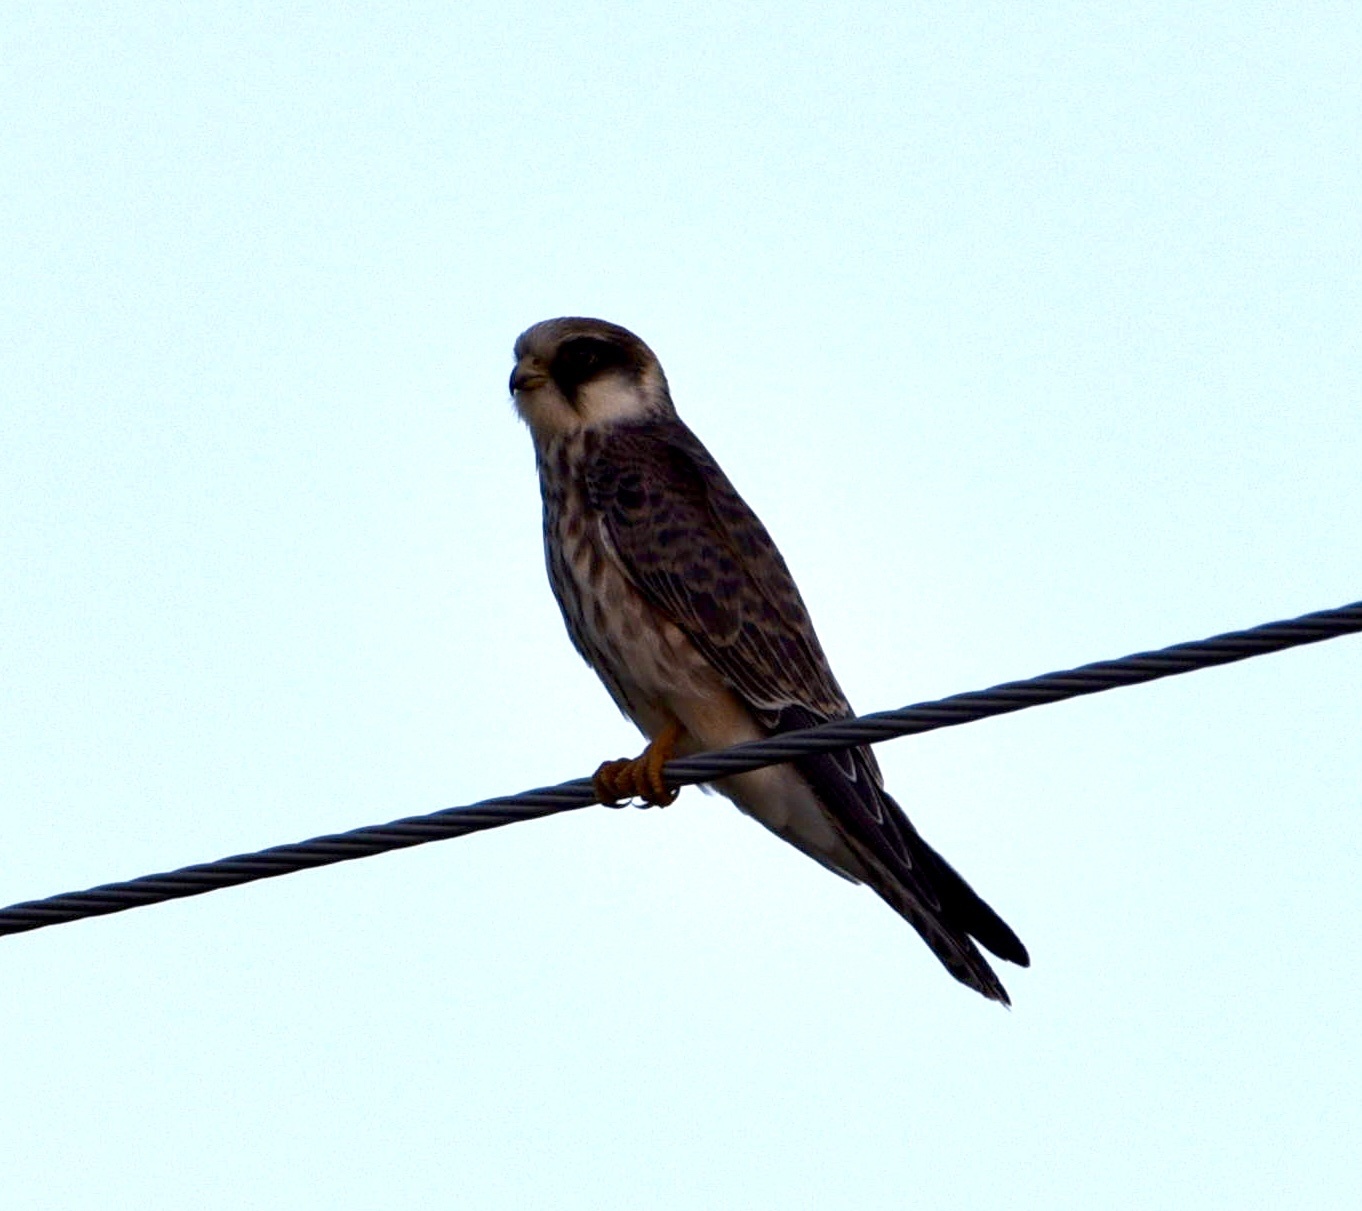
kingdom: Animalia
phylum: Chordata
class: Aves
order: Falconiformes
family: Falconidae
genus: Falco
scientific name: Falco tinnunculus
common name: Common kestrel
